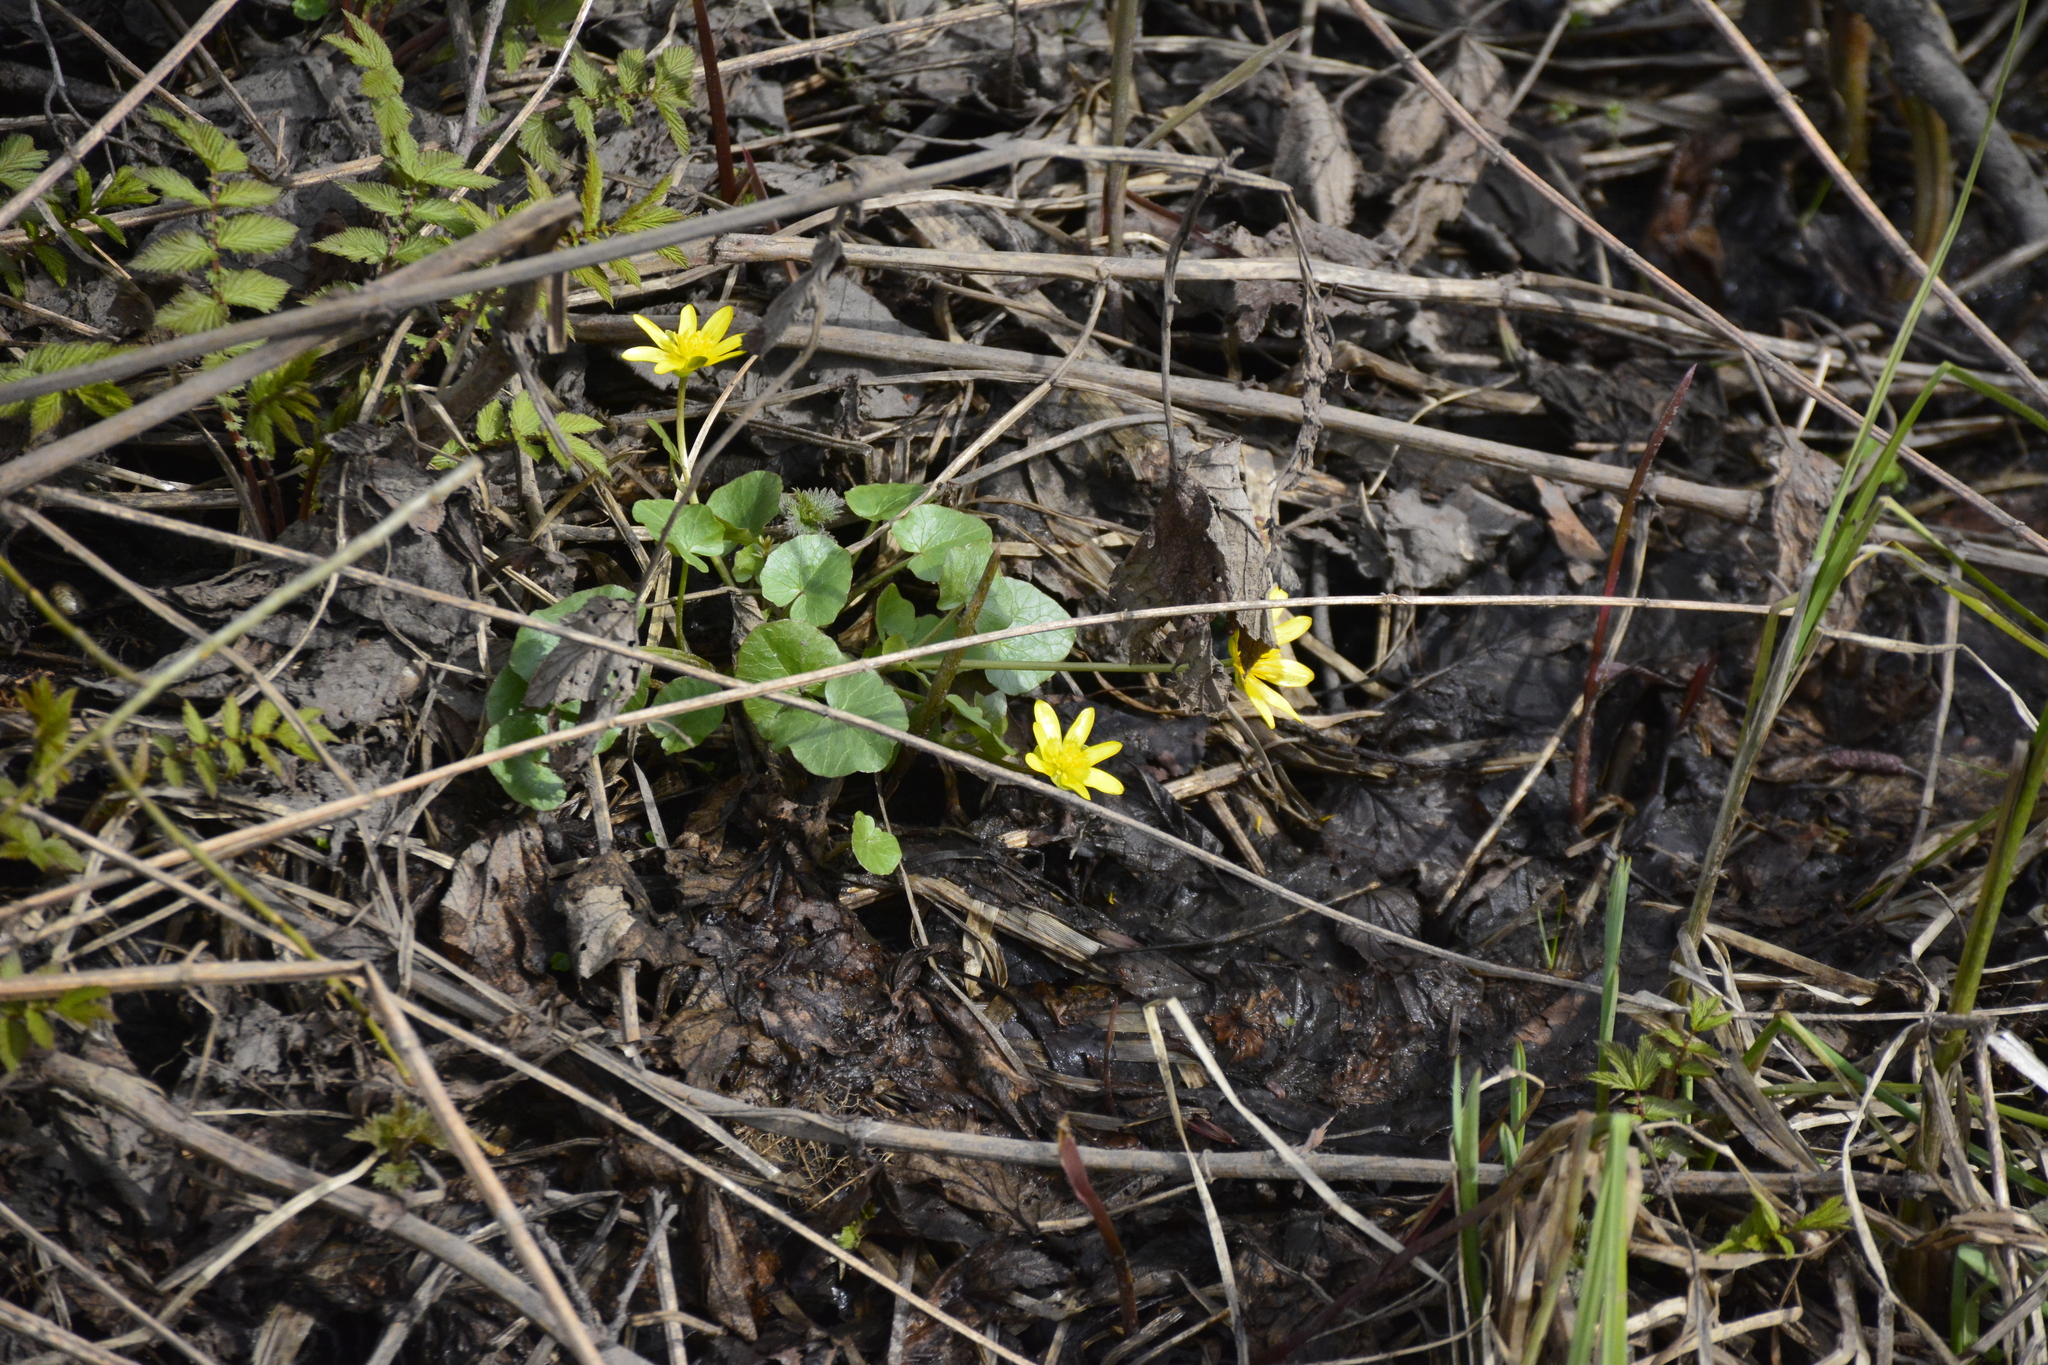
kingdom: Plantae
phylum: Tracheophyta
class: Magnoliopsida
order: Ranunculales
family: Ranunculaceae
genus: Ficaria
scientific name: Ficaria verna
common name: Lesser celandine
